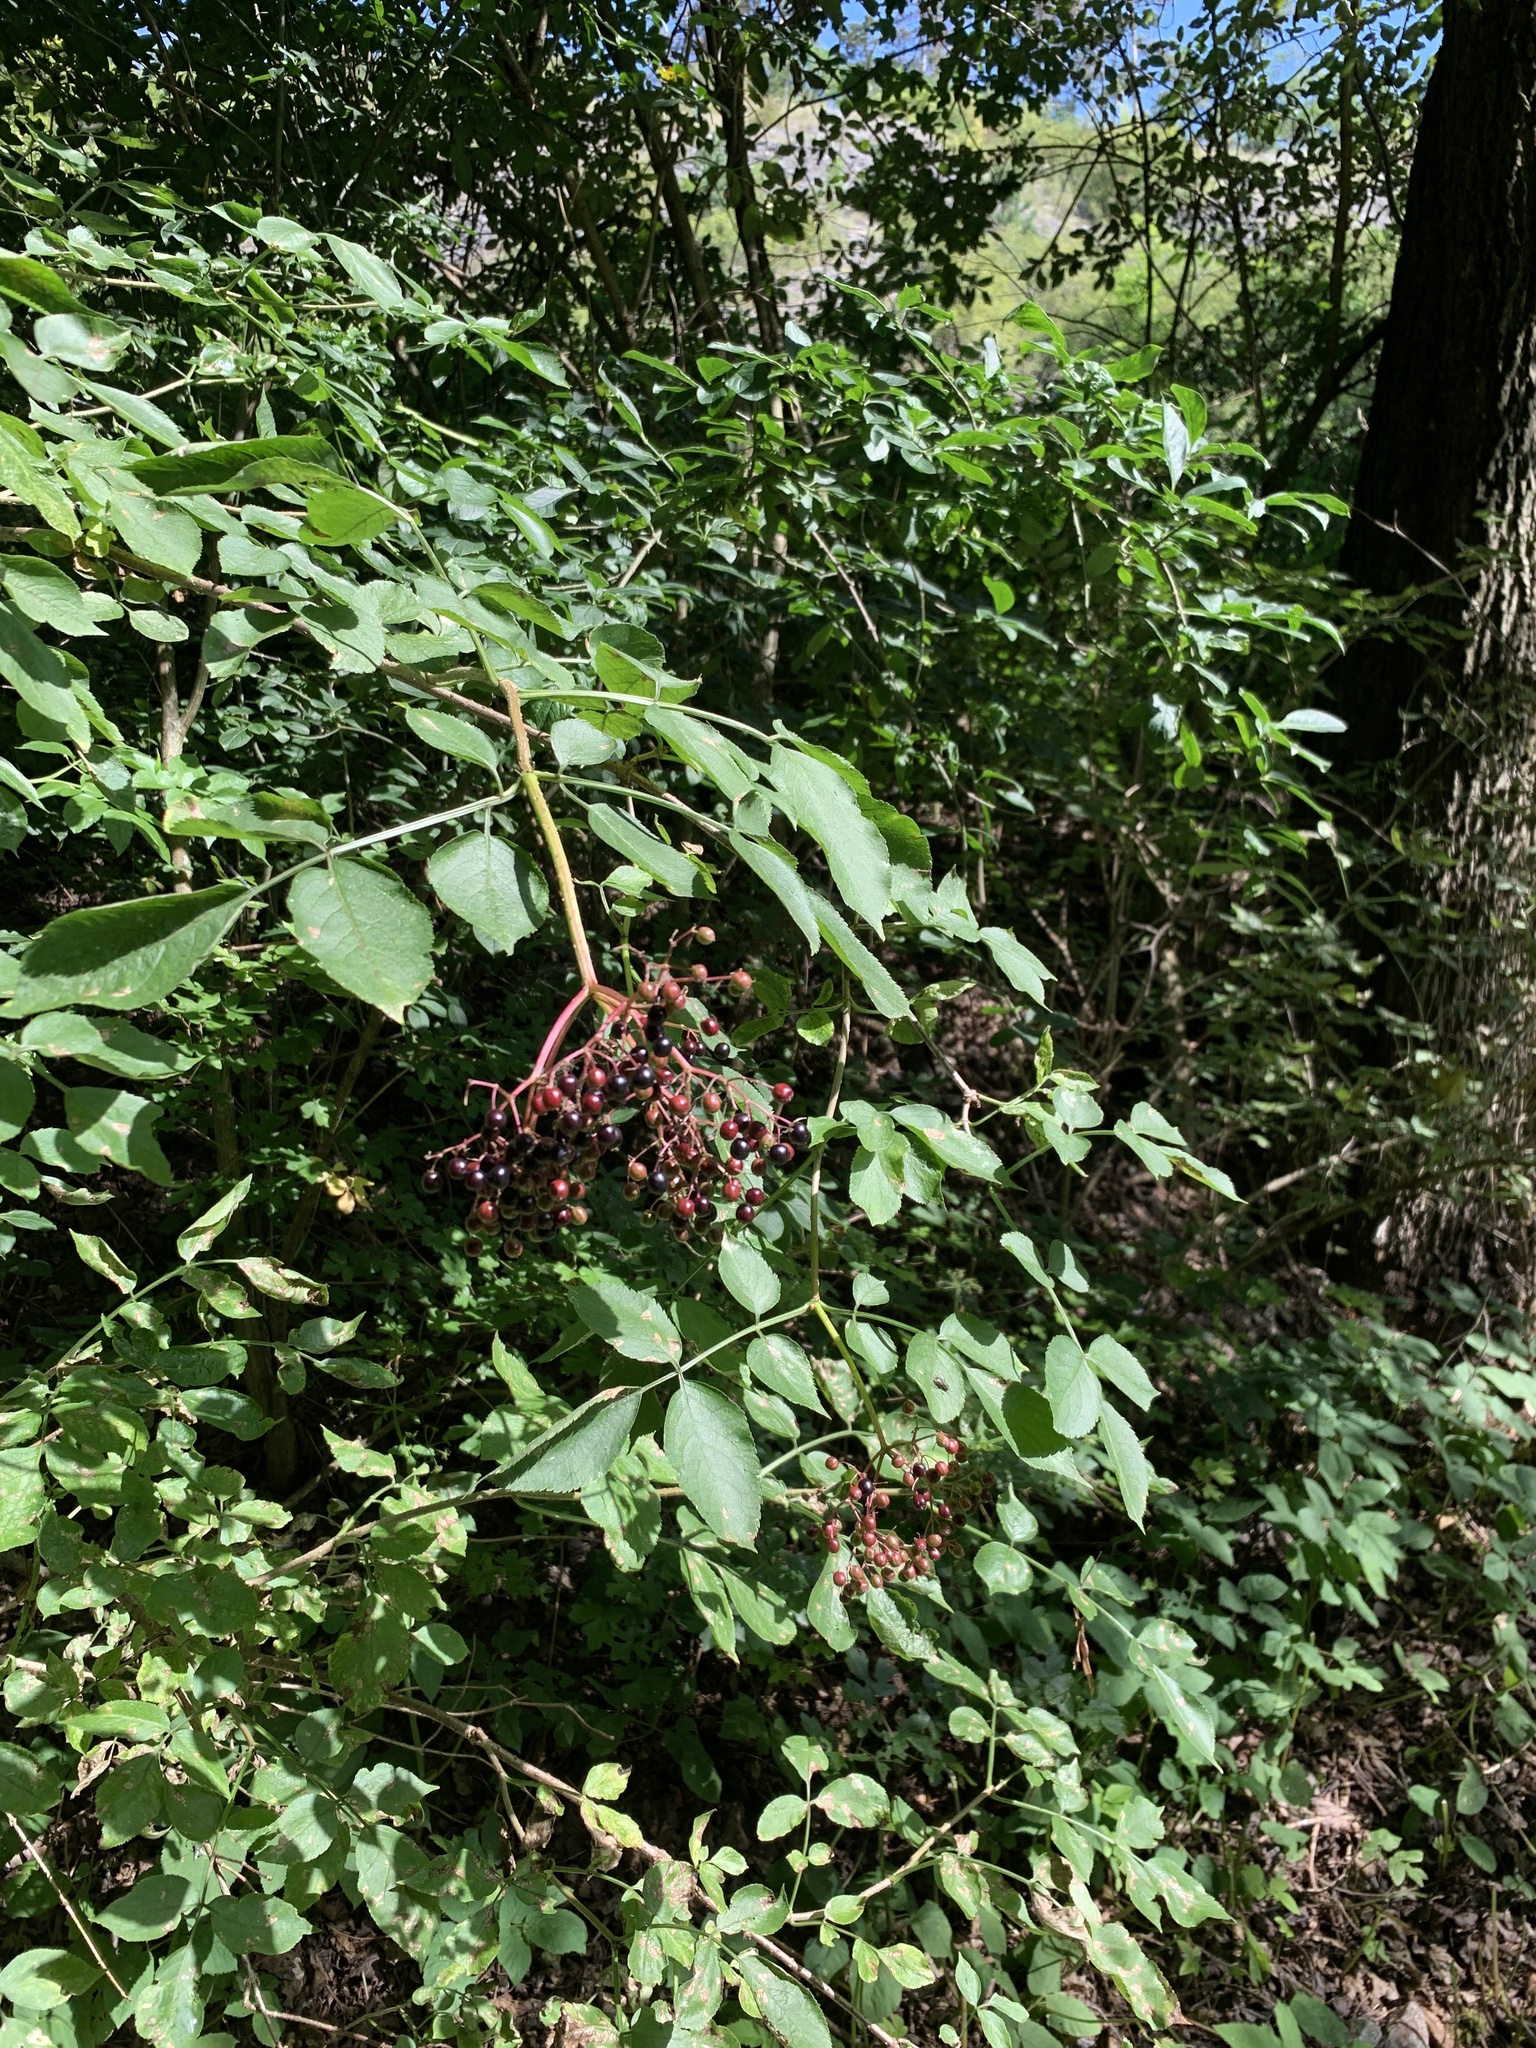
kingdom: Plantae
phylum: Tracheophyta
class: Magnoliopsida
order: Dipsacales
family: Viburnaceae
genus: Sambucus
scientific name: Sambucus nigra
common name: Elder
